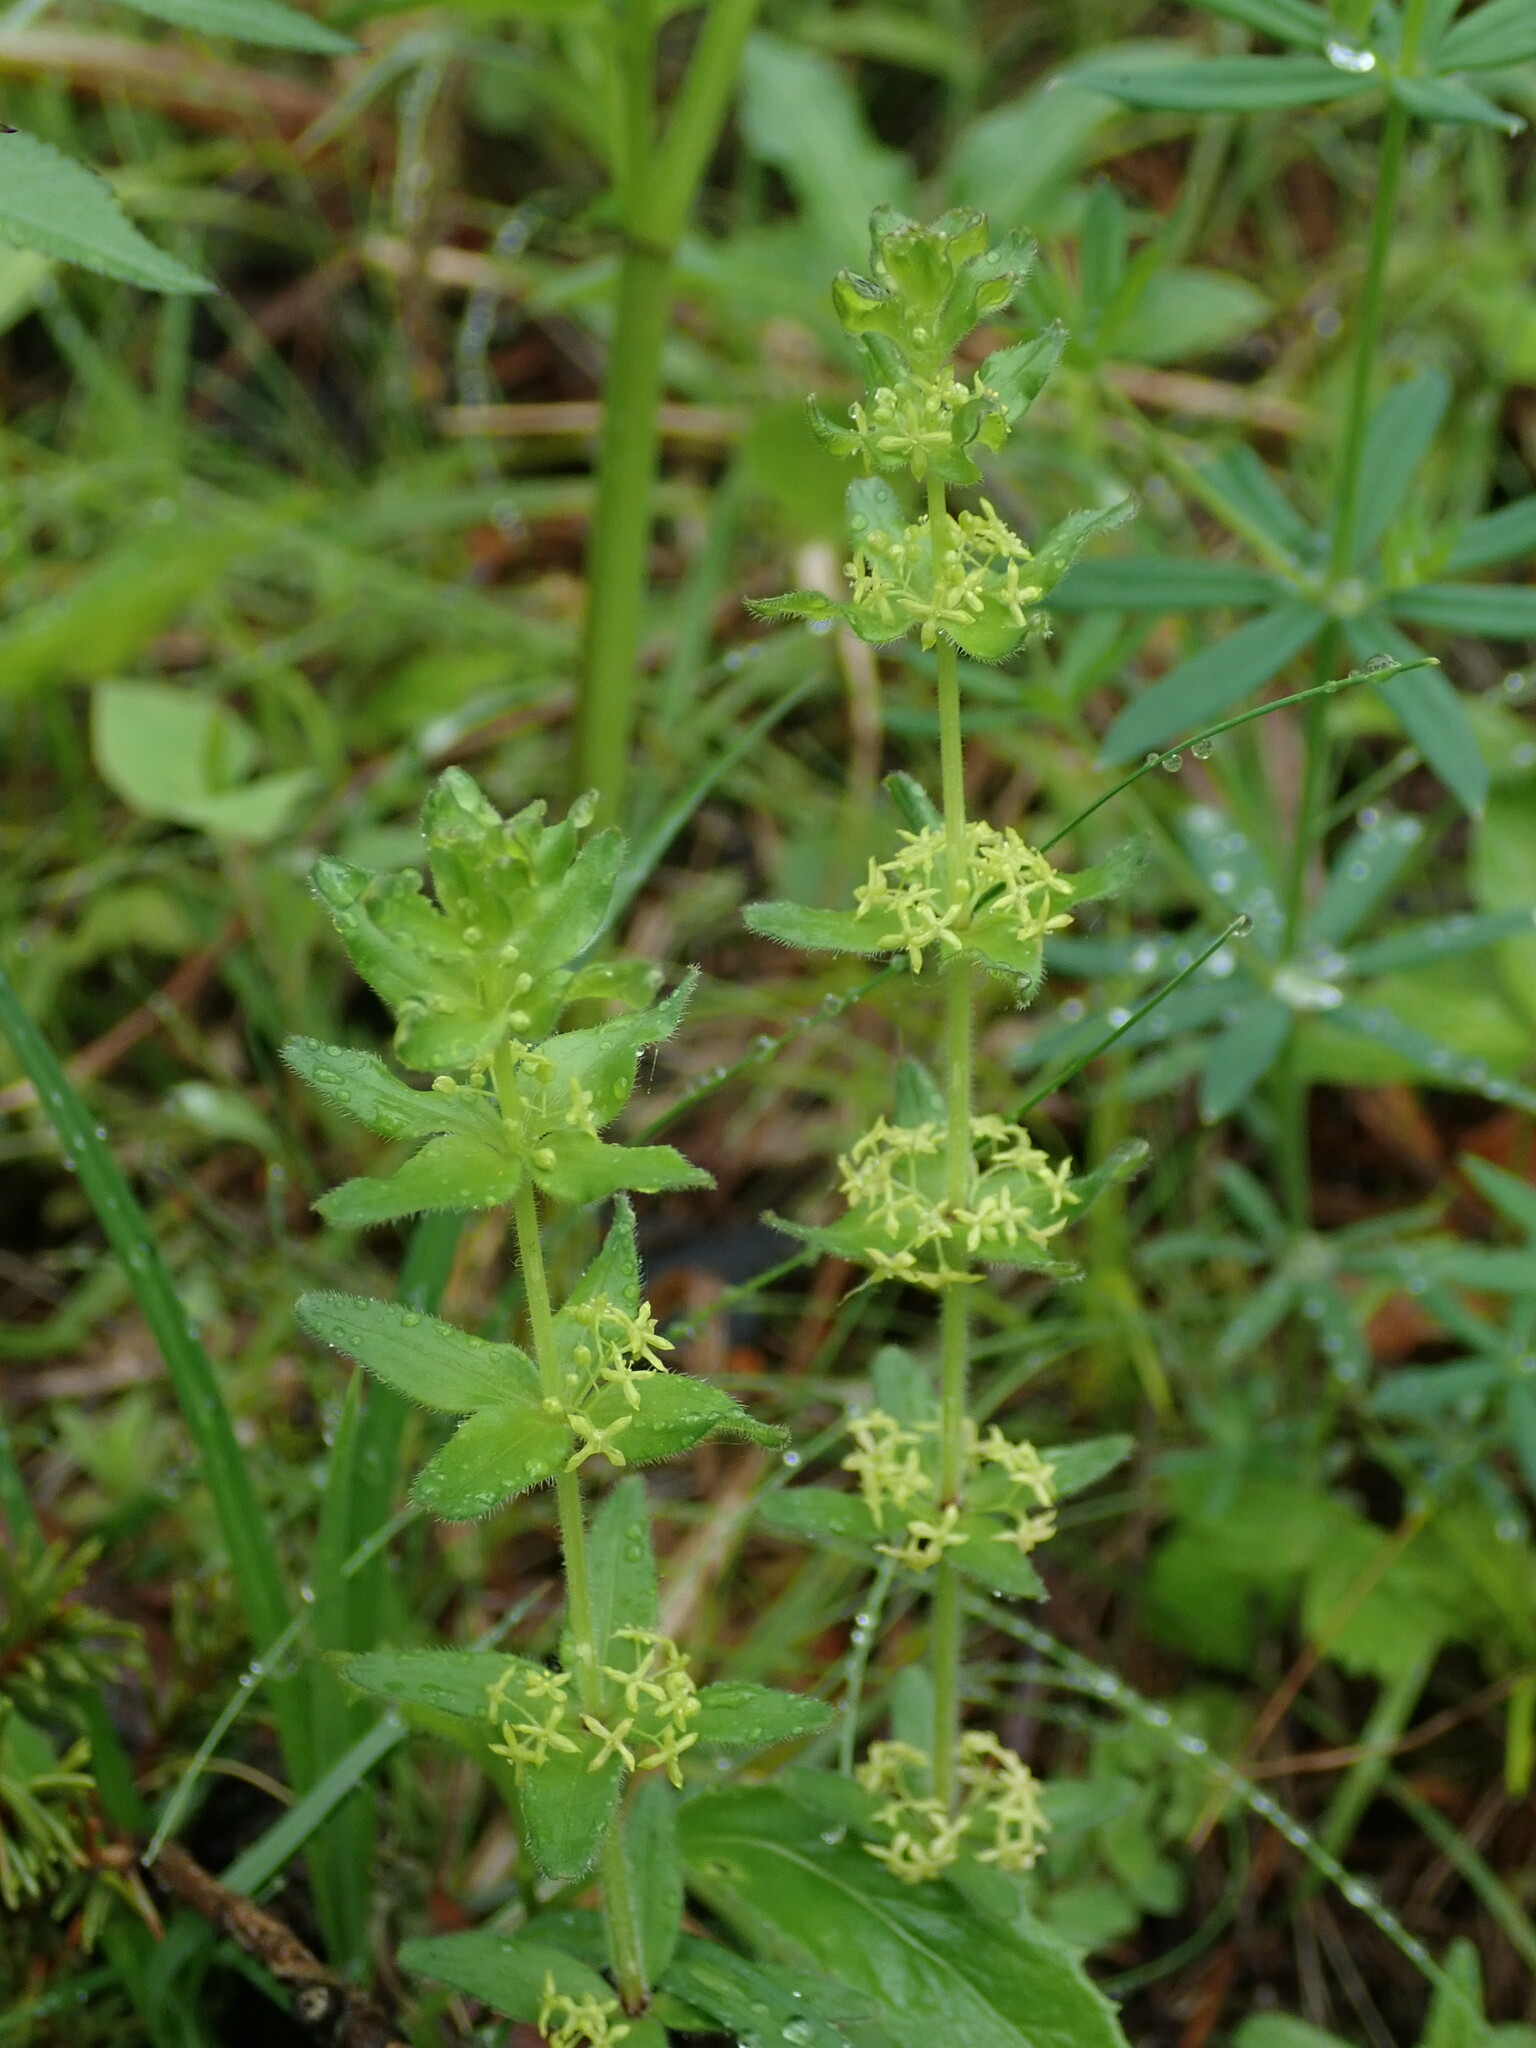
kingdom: Plantae
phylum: Tracheophyta
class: Magnoliopsida
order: Gentianales
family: Rubiaceae
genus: Cruciata
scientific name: Cruciata glabra
